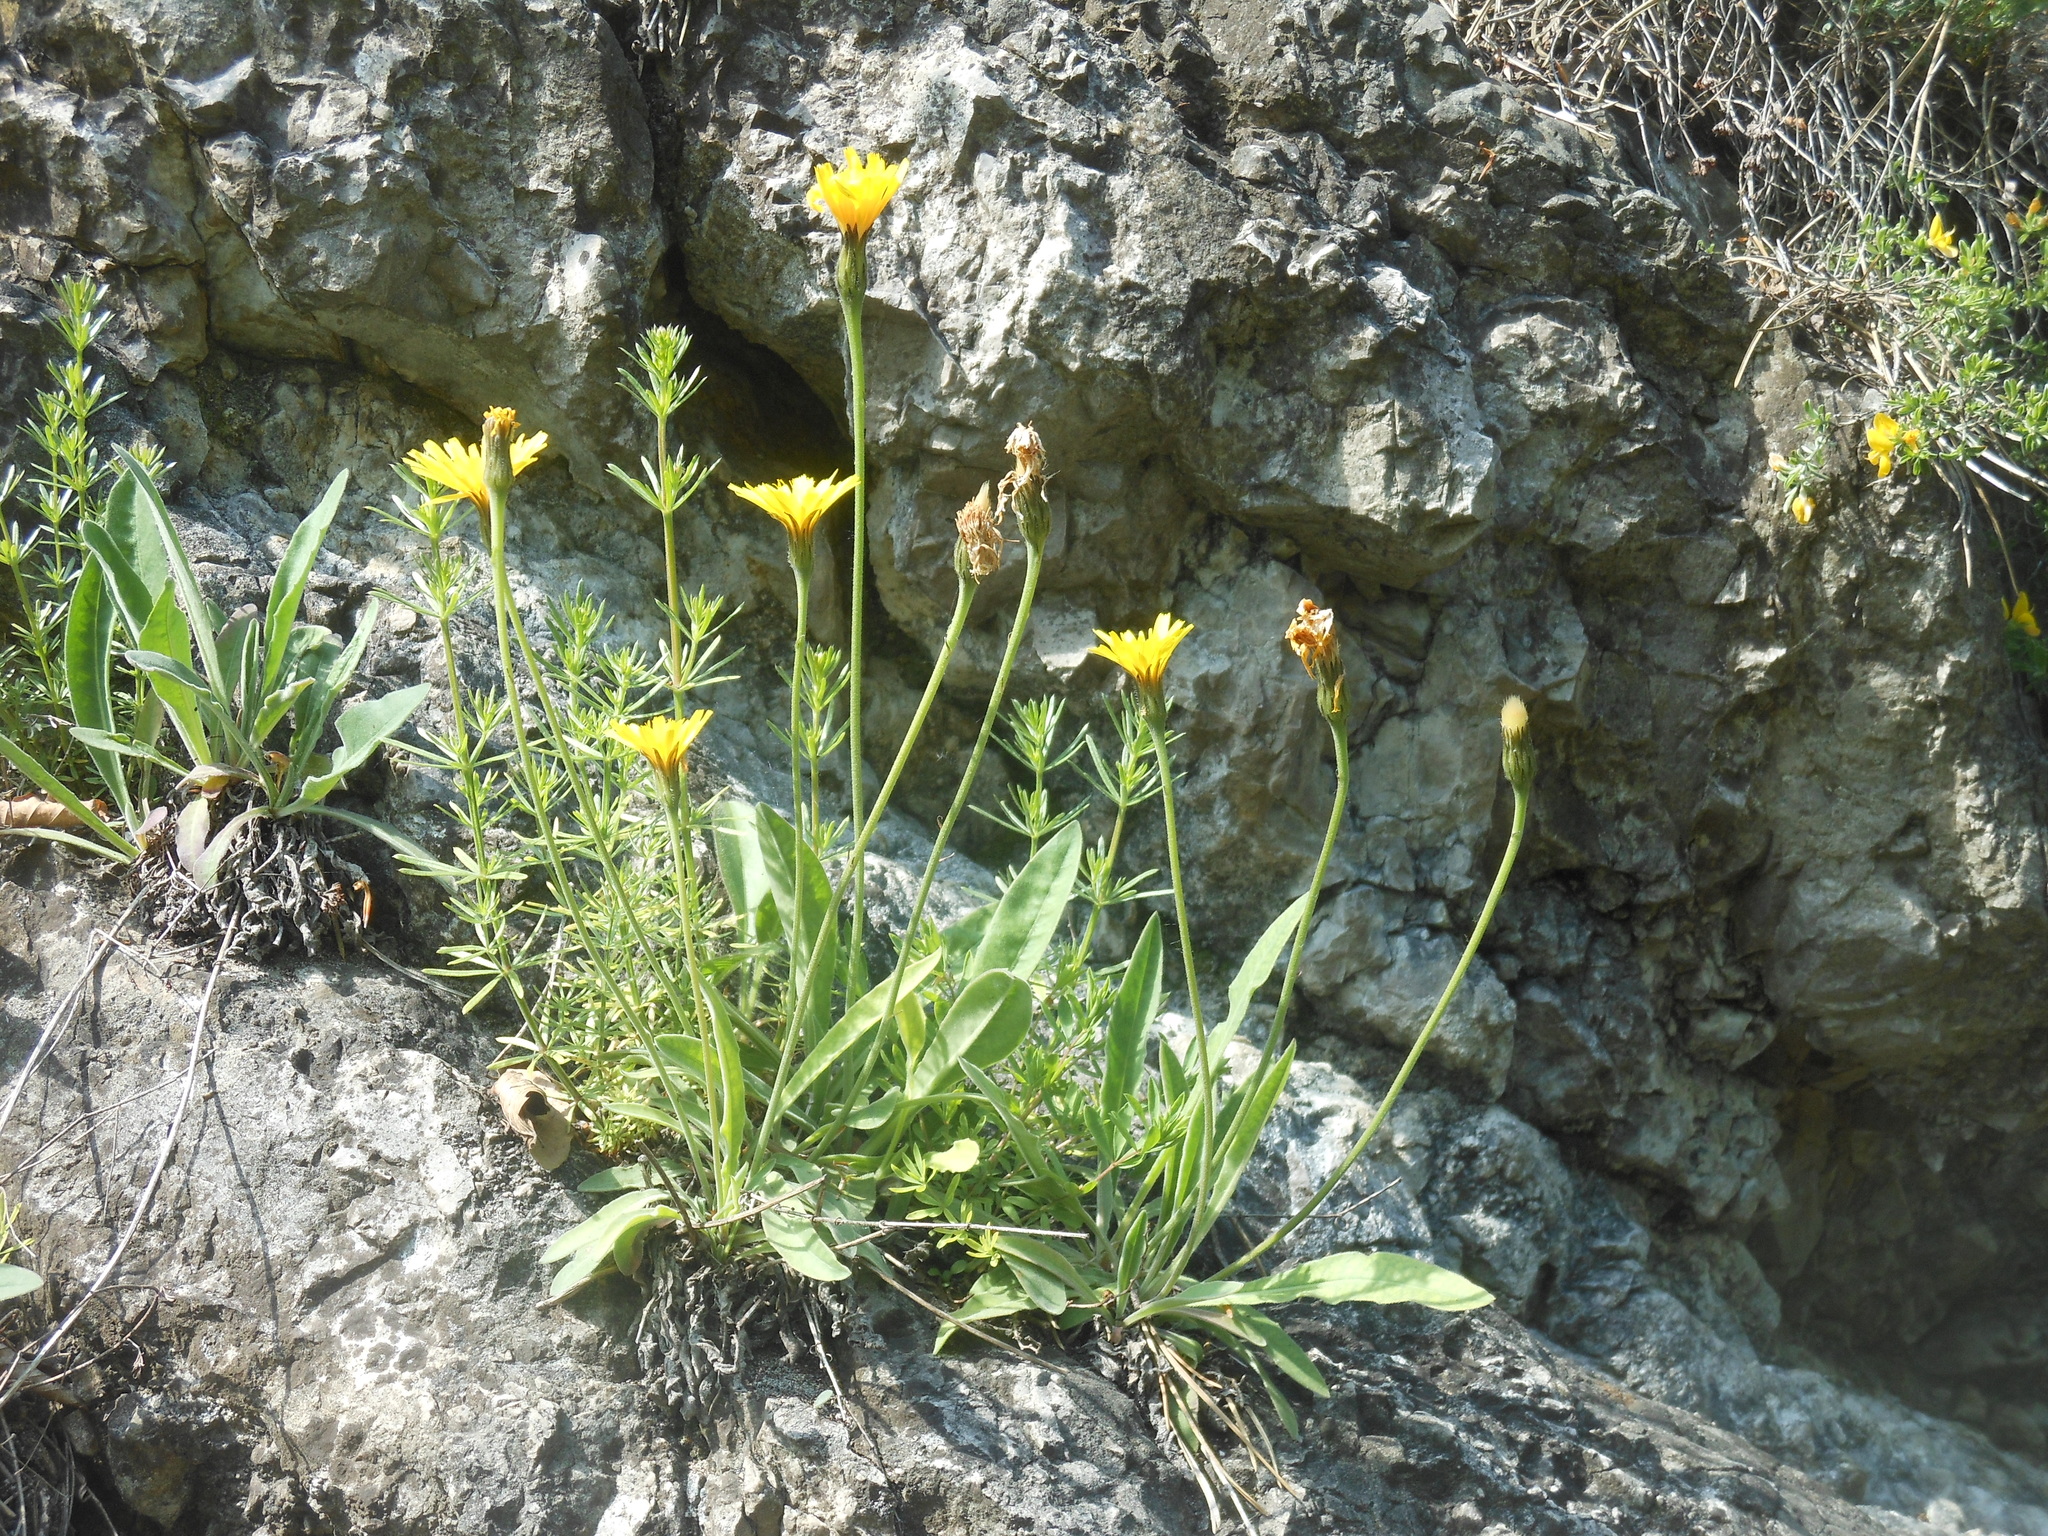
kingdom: Plantae
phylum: Tracheophyta
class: Magnoliopsida
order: Asterales
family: Asteraceae
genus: Leontodon
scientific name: Leontodon incanus
